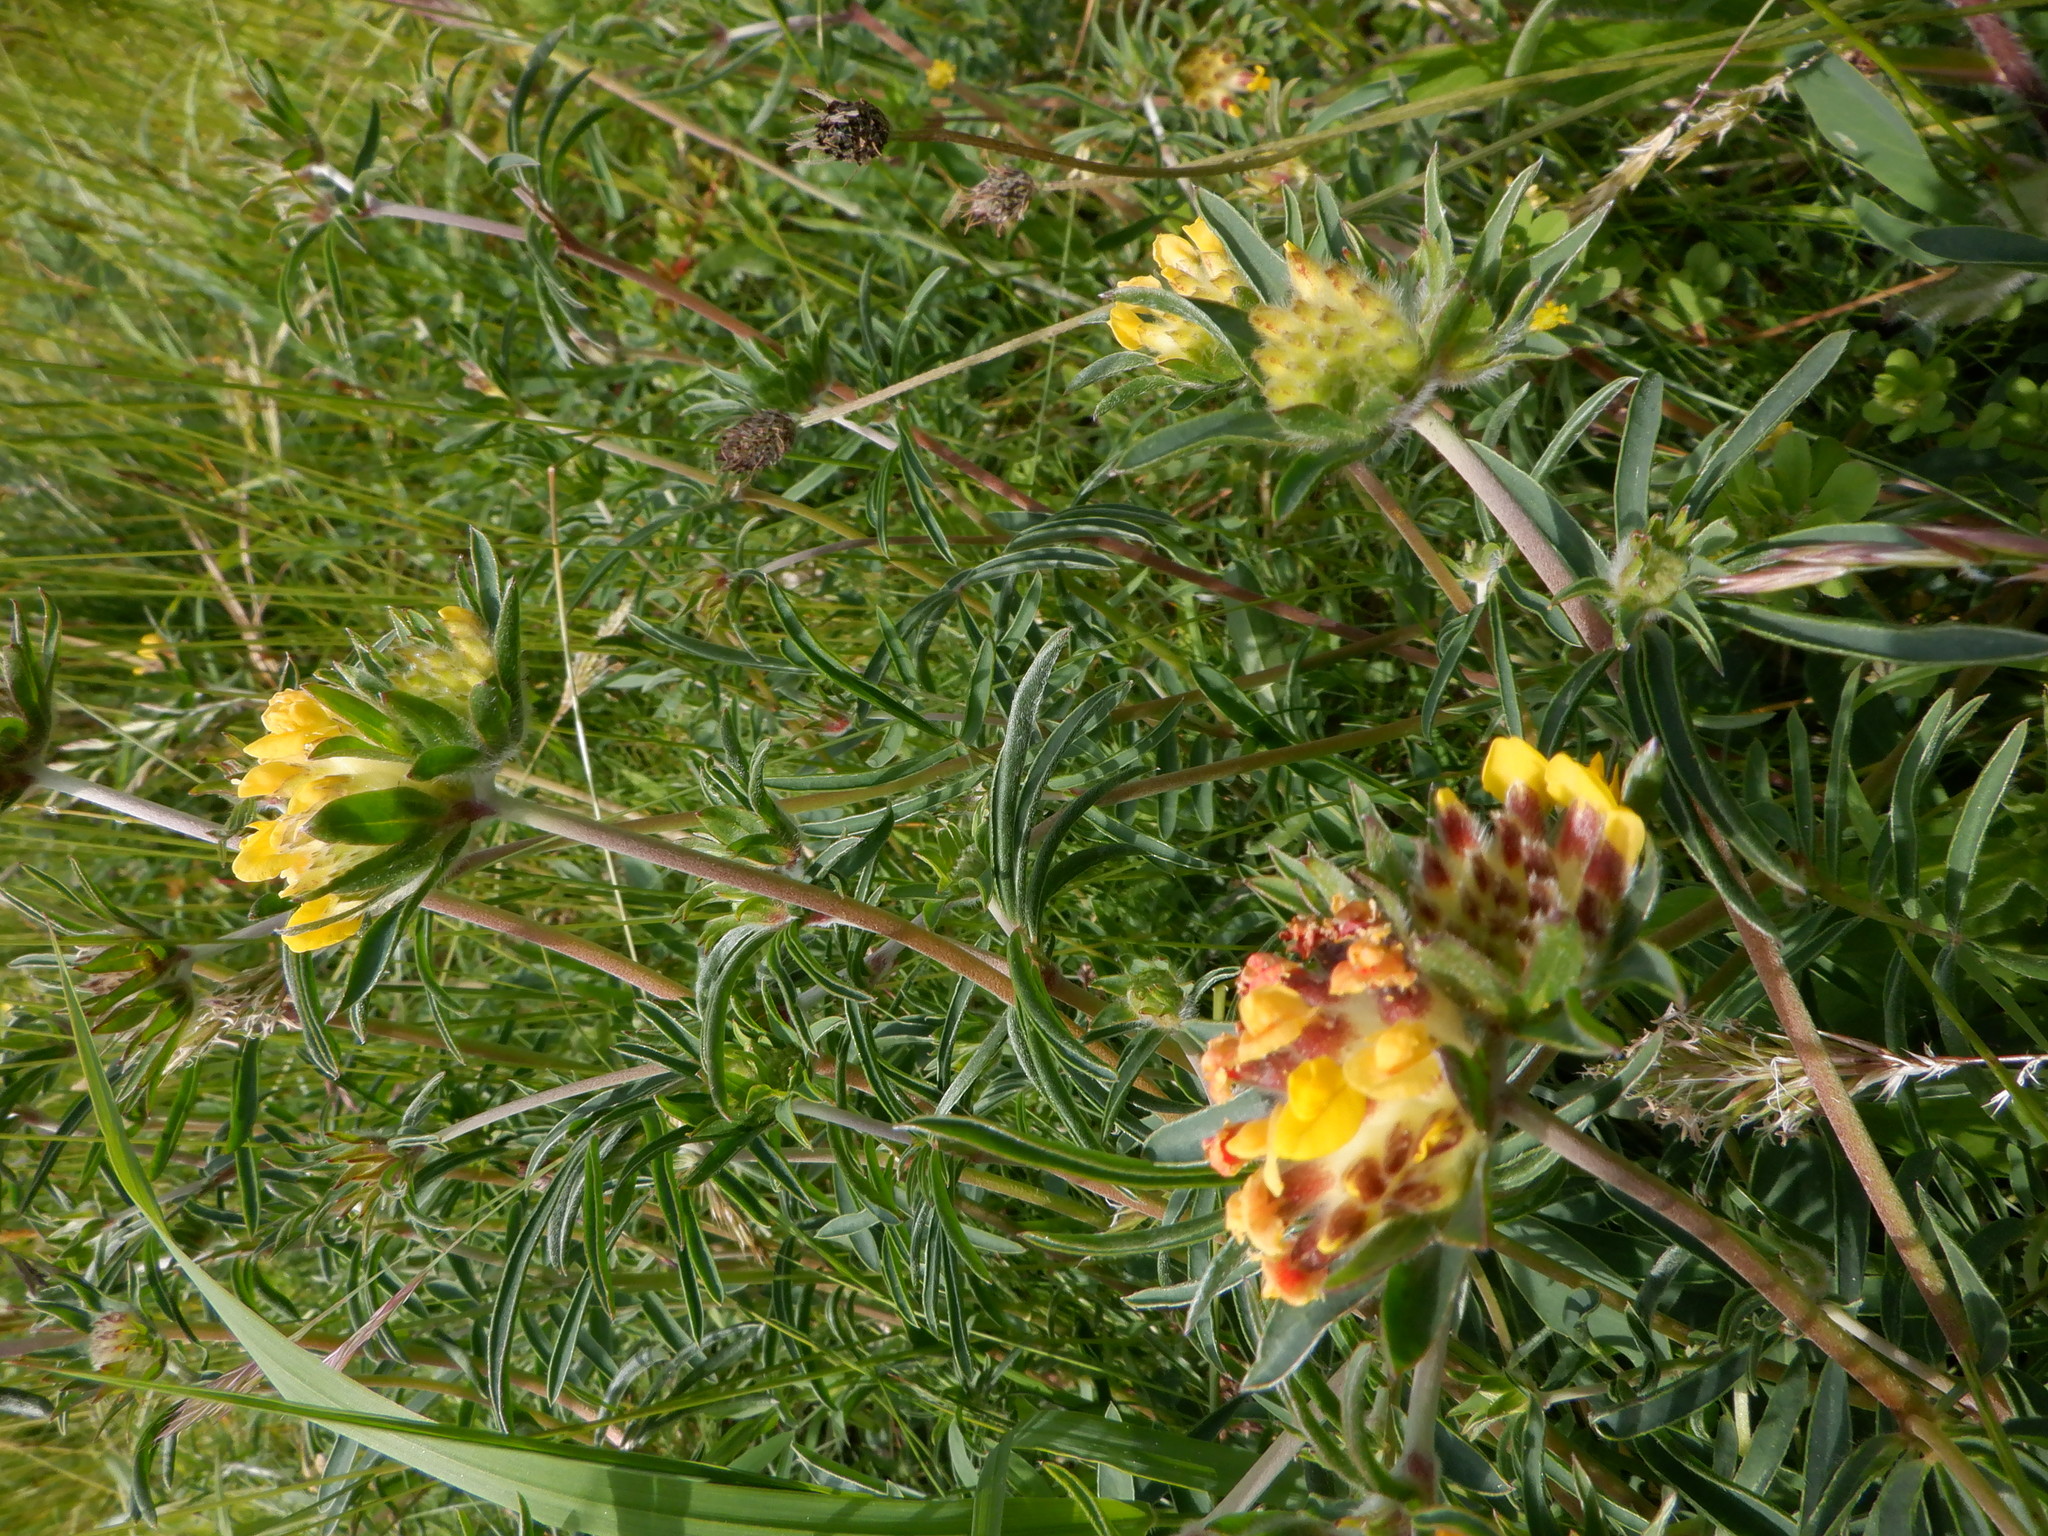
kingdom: Plantae
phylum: Tracheophyta
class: Magnoliopsida
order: Fabales
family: Fabaceae
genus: Anthyllis
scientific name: Anthyllis vulneraria
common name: Kidney vetch
